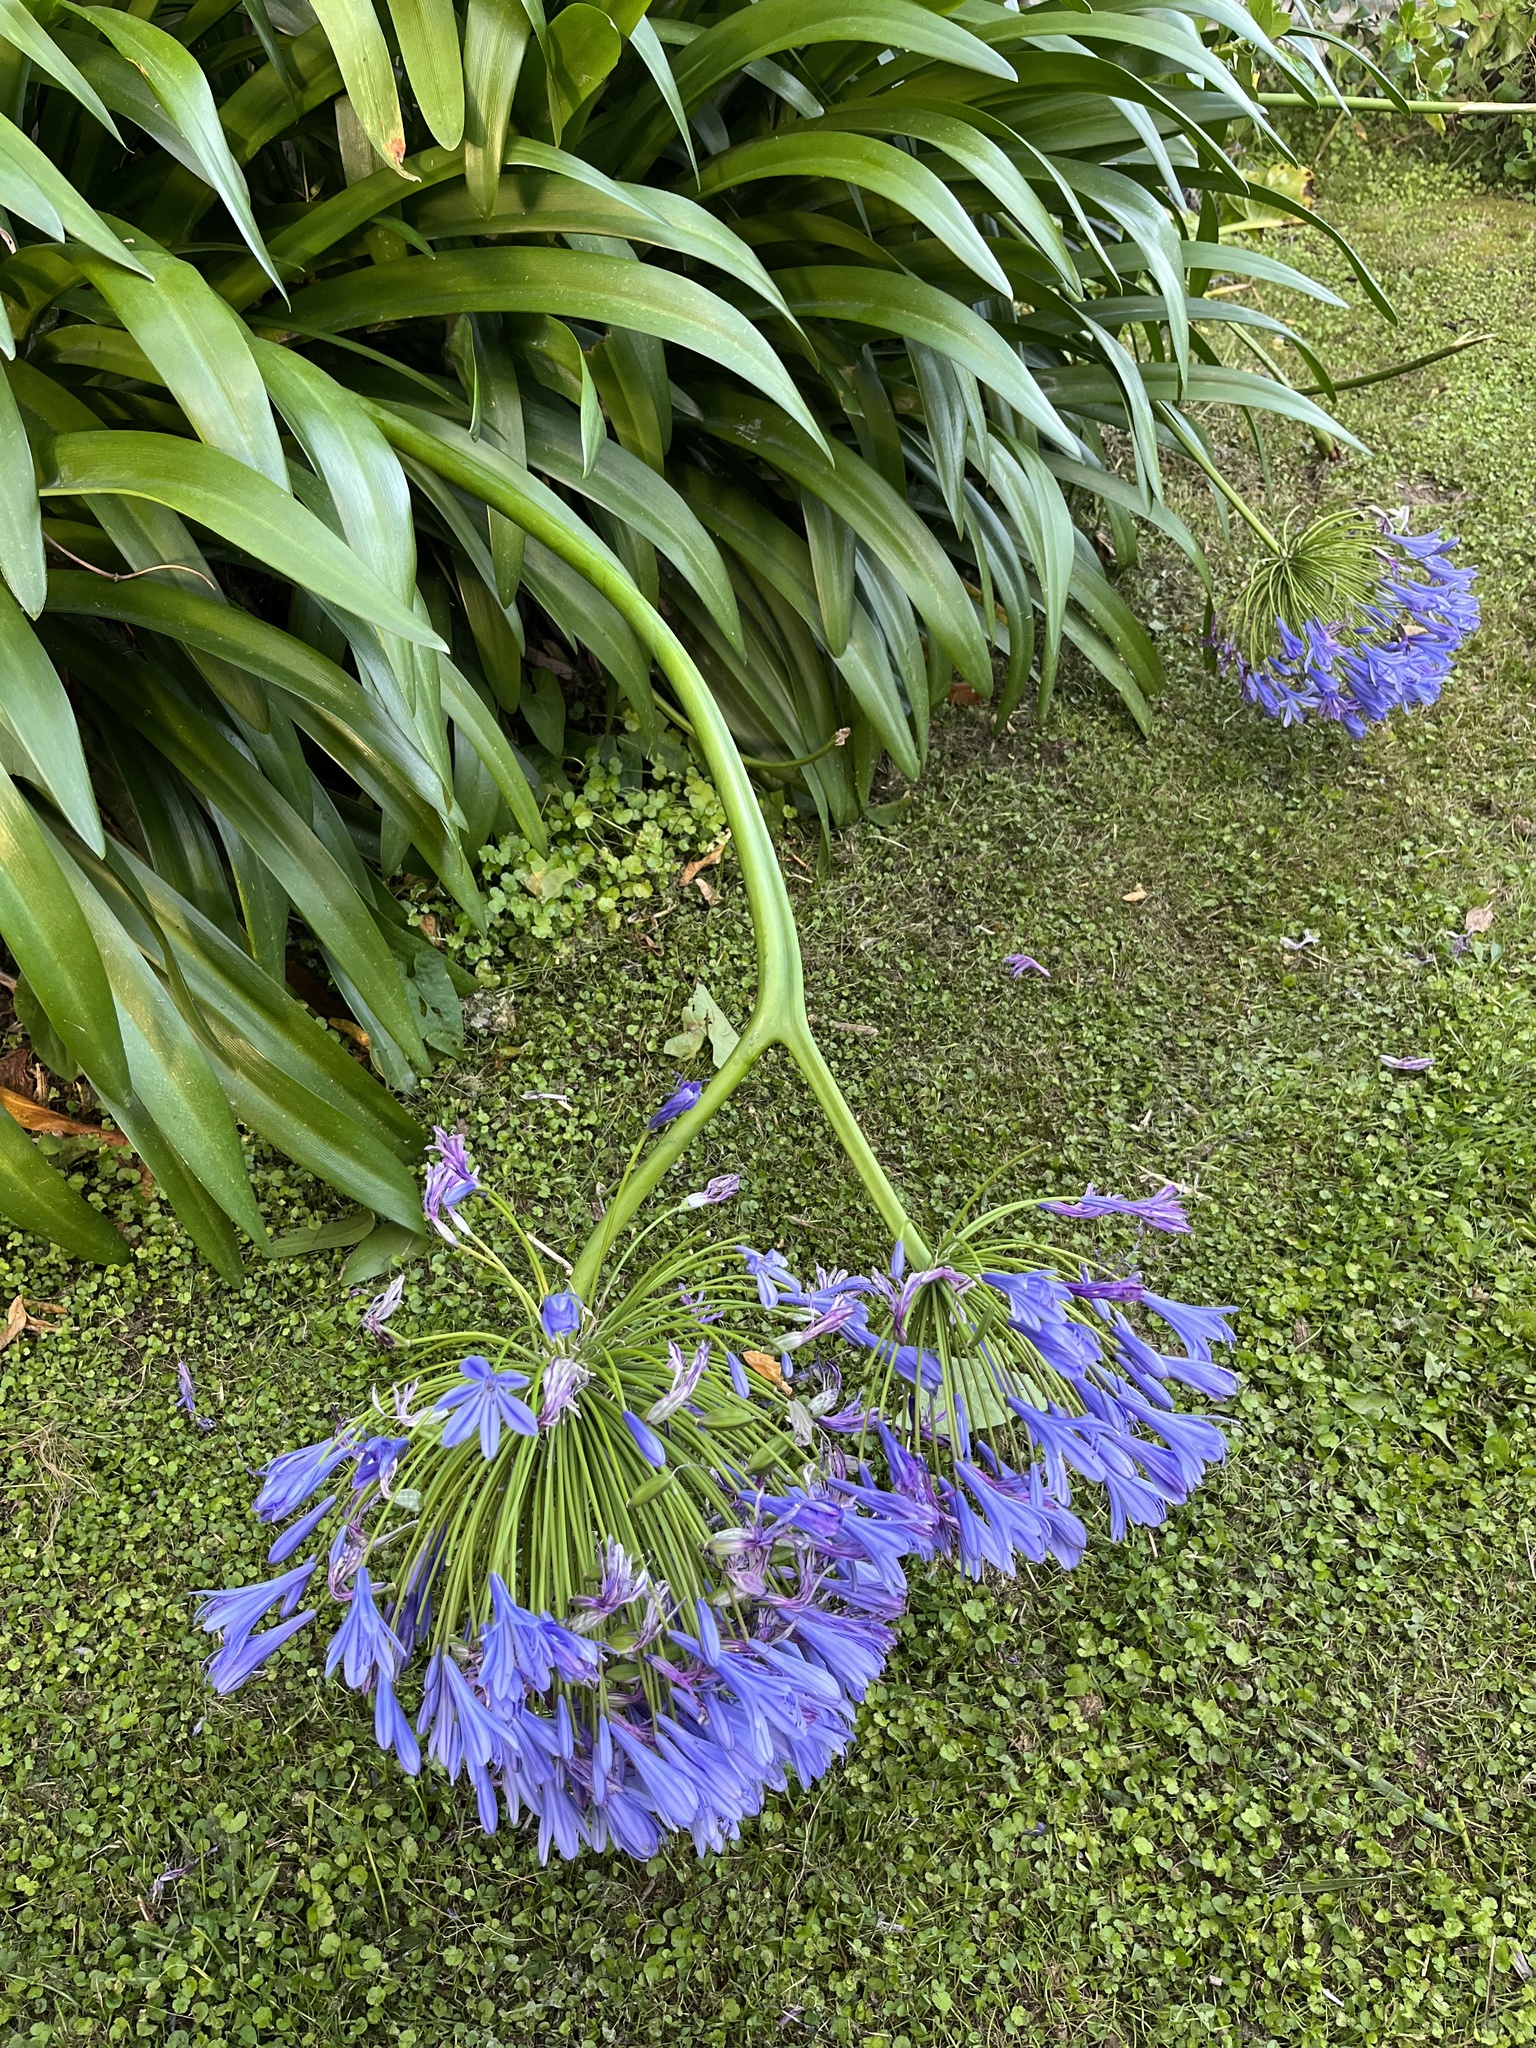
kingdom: Plantae
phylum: Tracheophyta
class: Liliopsida
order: Asparagales
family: Amaryllidaceae
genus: Agapanthus
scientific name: Agapanthus praecox
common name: African-lily
